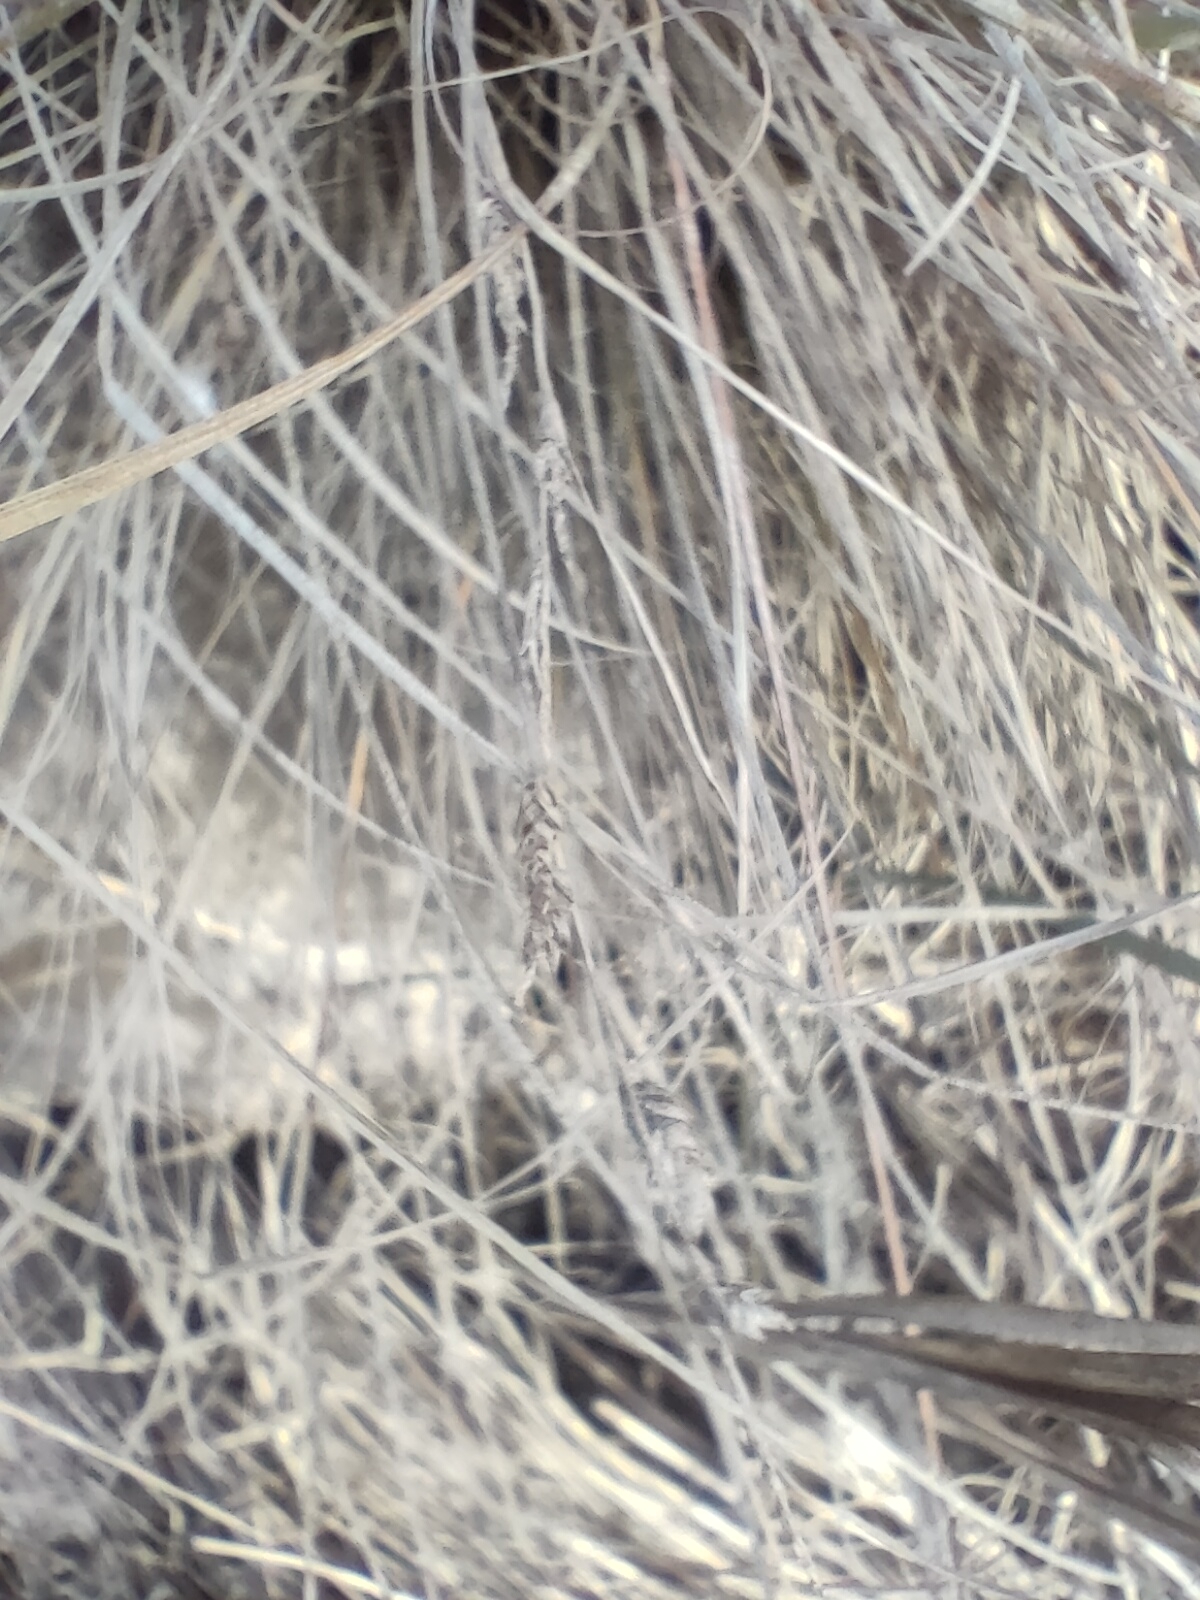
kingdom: Plantae
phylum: Tracheophyta
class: Liliopsida
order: Poales
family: Cyperaceae
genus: Carex
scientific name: Carex litorosa
